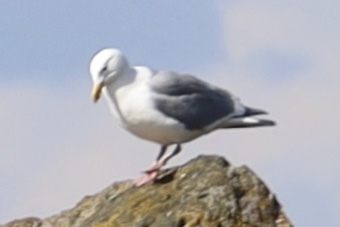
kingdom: Animalia
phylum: Chordata
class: Aves
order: Charadriiformes
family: Laridae
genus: Larus
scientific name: Larus
